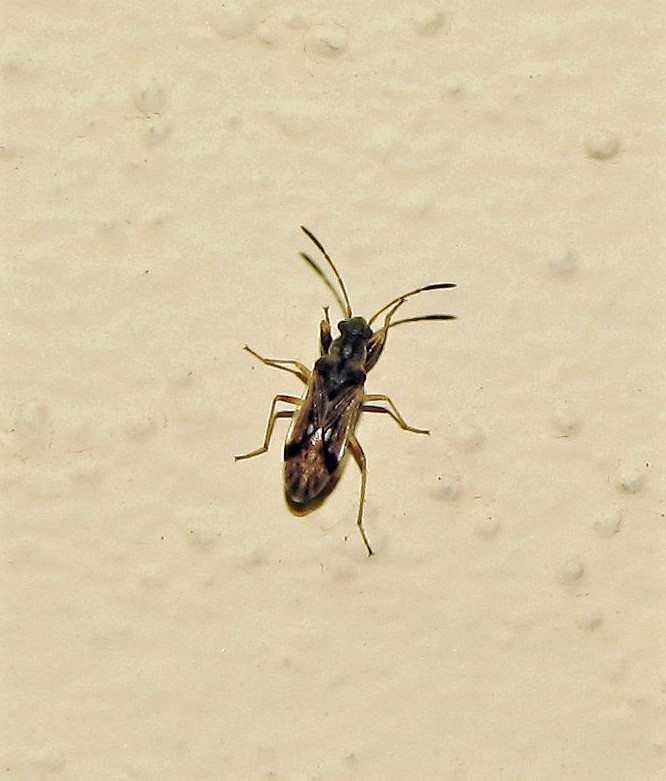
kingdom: Animalia
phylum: Arthropoda
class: Insecta
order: Hemiptera
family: Rhyparochromidae
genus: Pseudopachybrachius
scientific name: Pseudopachybrachius vinctus
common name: Dirt-colored seed bug
